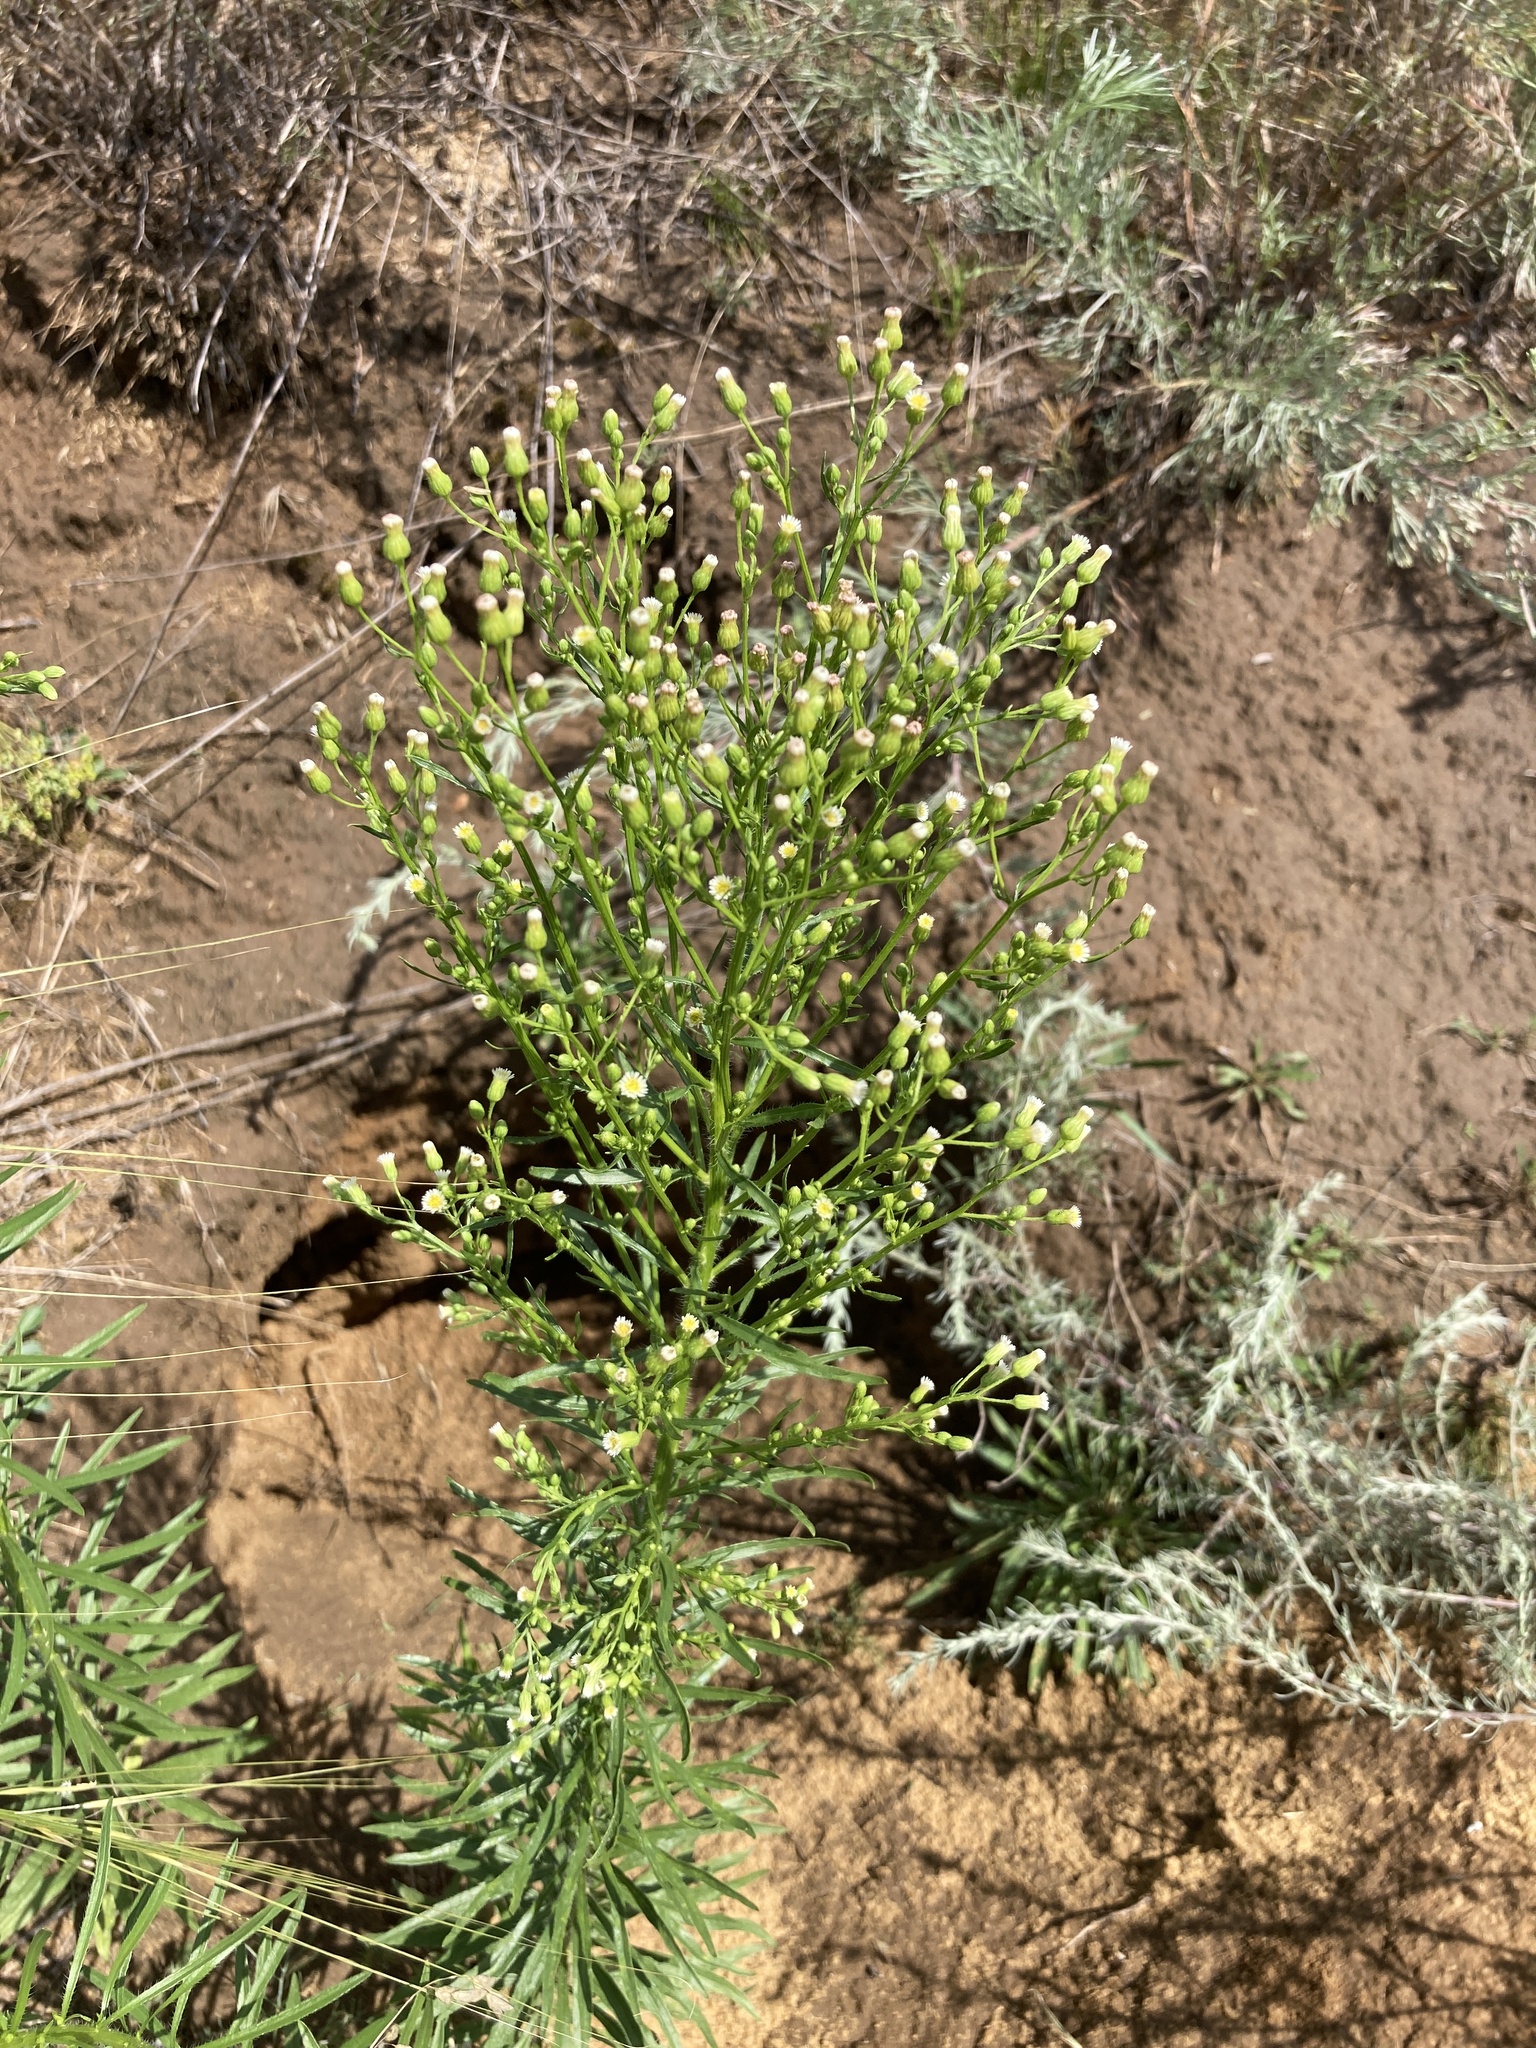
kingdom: Plantae
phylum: Tracheophyta
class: Magnoliopsida
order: Asterales
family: Asteraceae
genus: Erigeron
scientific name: Erigeron canadensis
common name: Canadian fleabane
